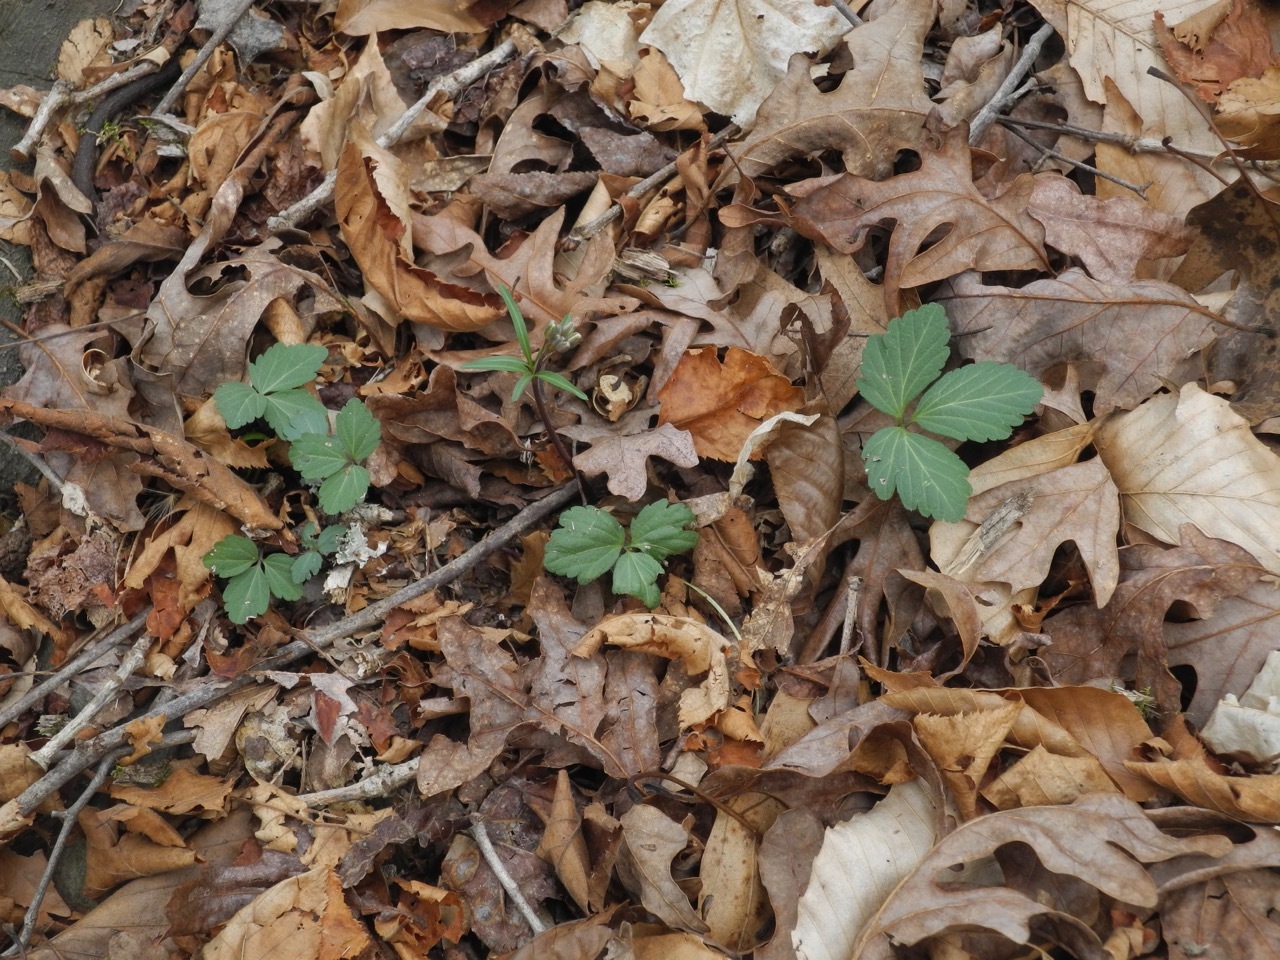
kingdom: Plantae
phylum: Tracheophyta
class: Magnoliopsida
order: Brassicales
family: Brassicaceae
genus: Cardamine
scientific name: Cardamine diphylla
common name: Broad-leaved toothwort
